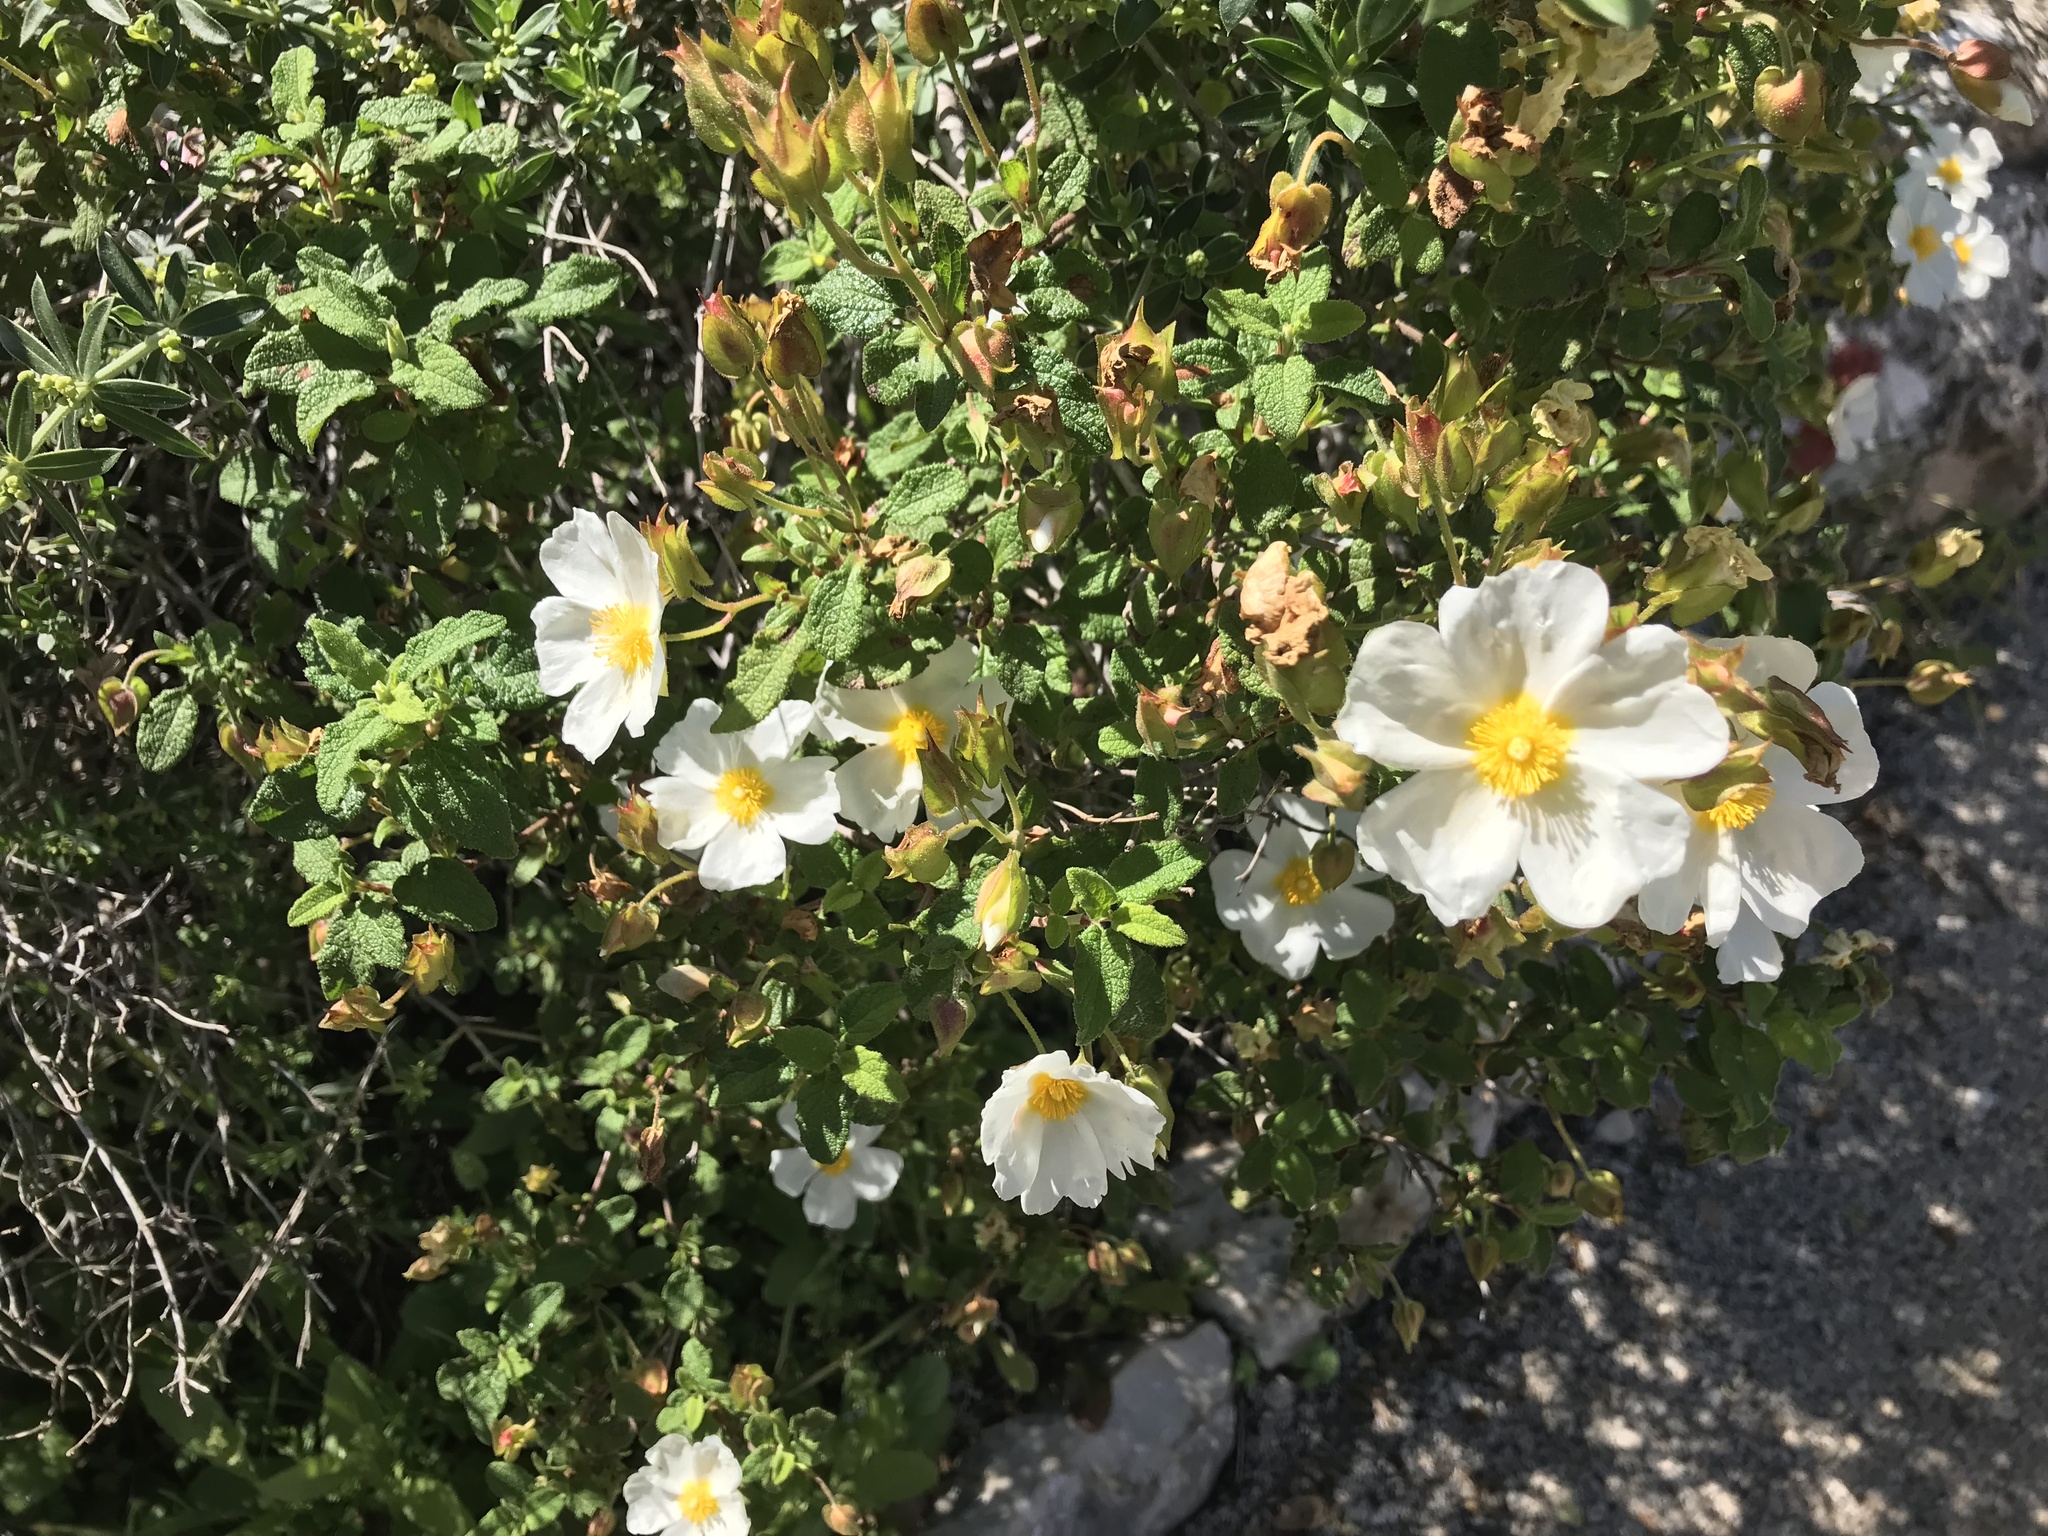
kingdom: Plantae
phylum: Tracheophyta
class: Magnoliopsida
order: Malvales
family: Cistaceae
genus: Cistus
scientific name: Cistus salviifolius
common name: Salvia cistus
